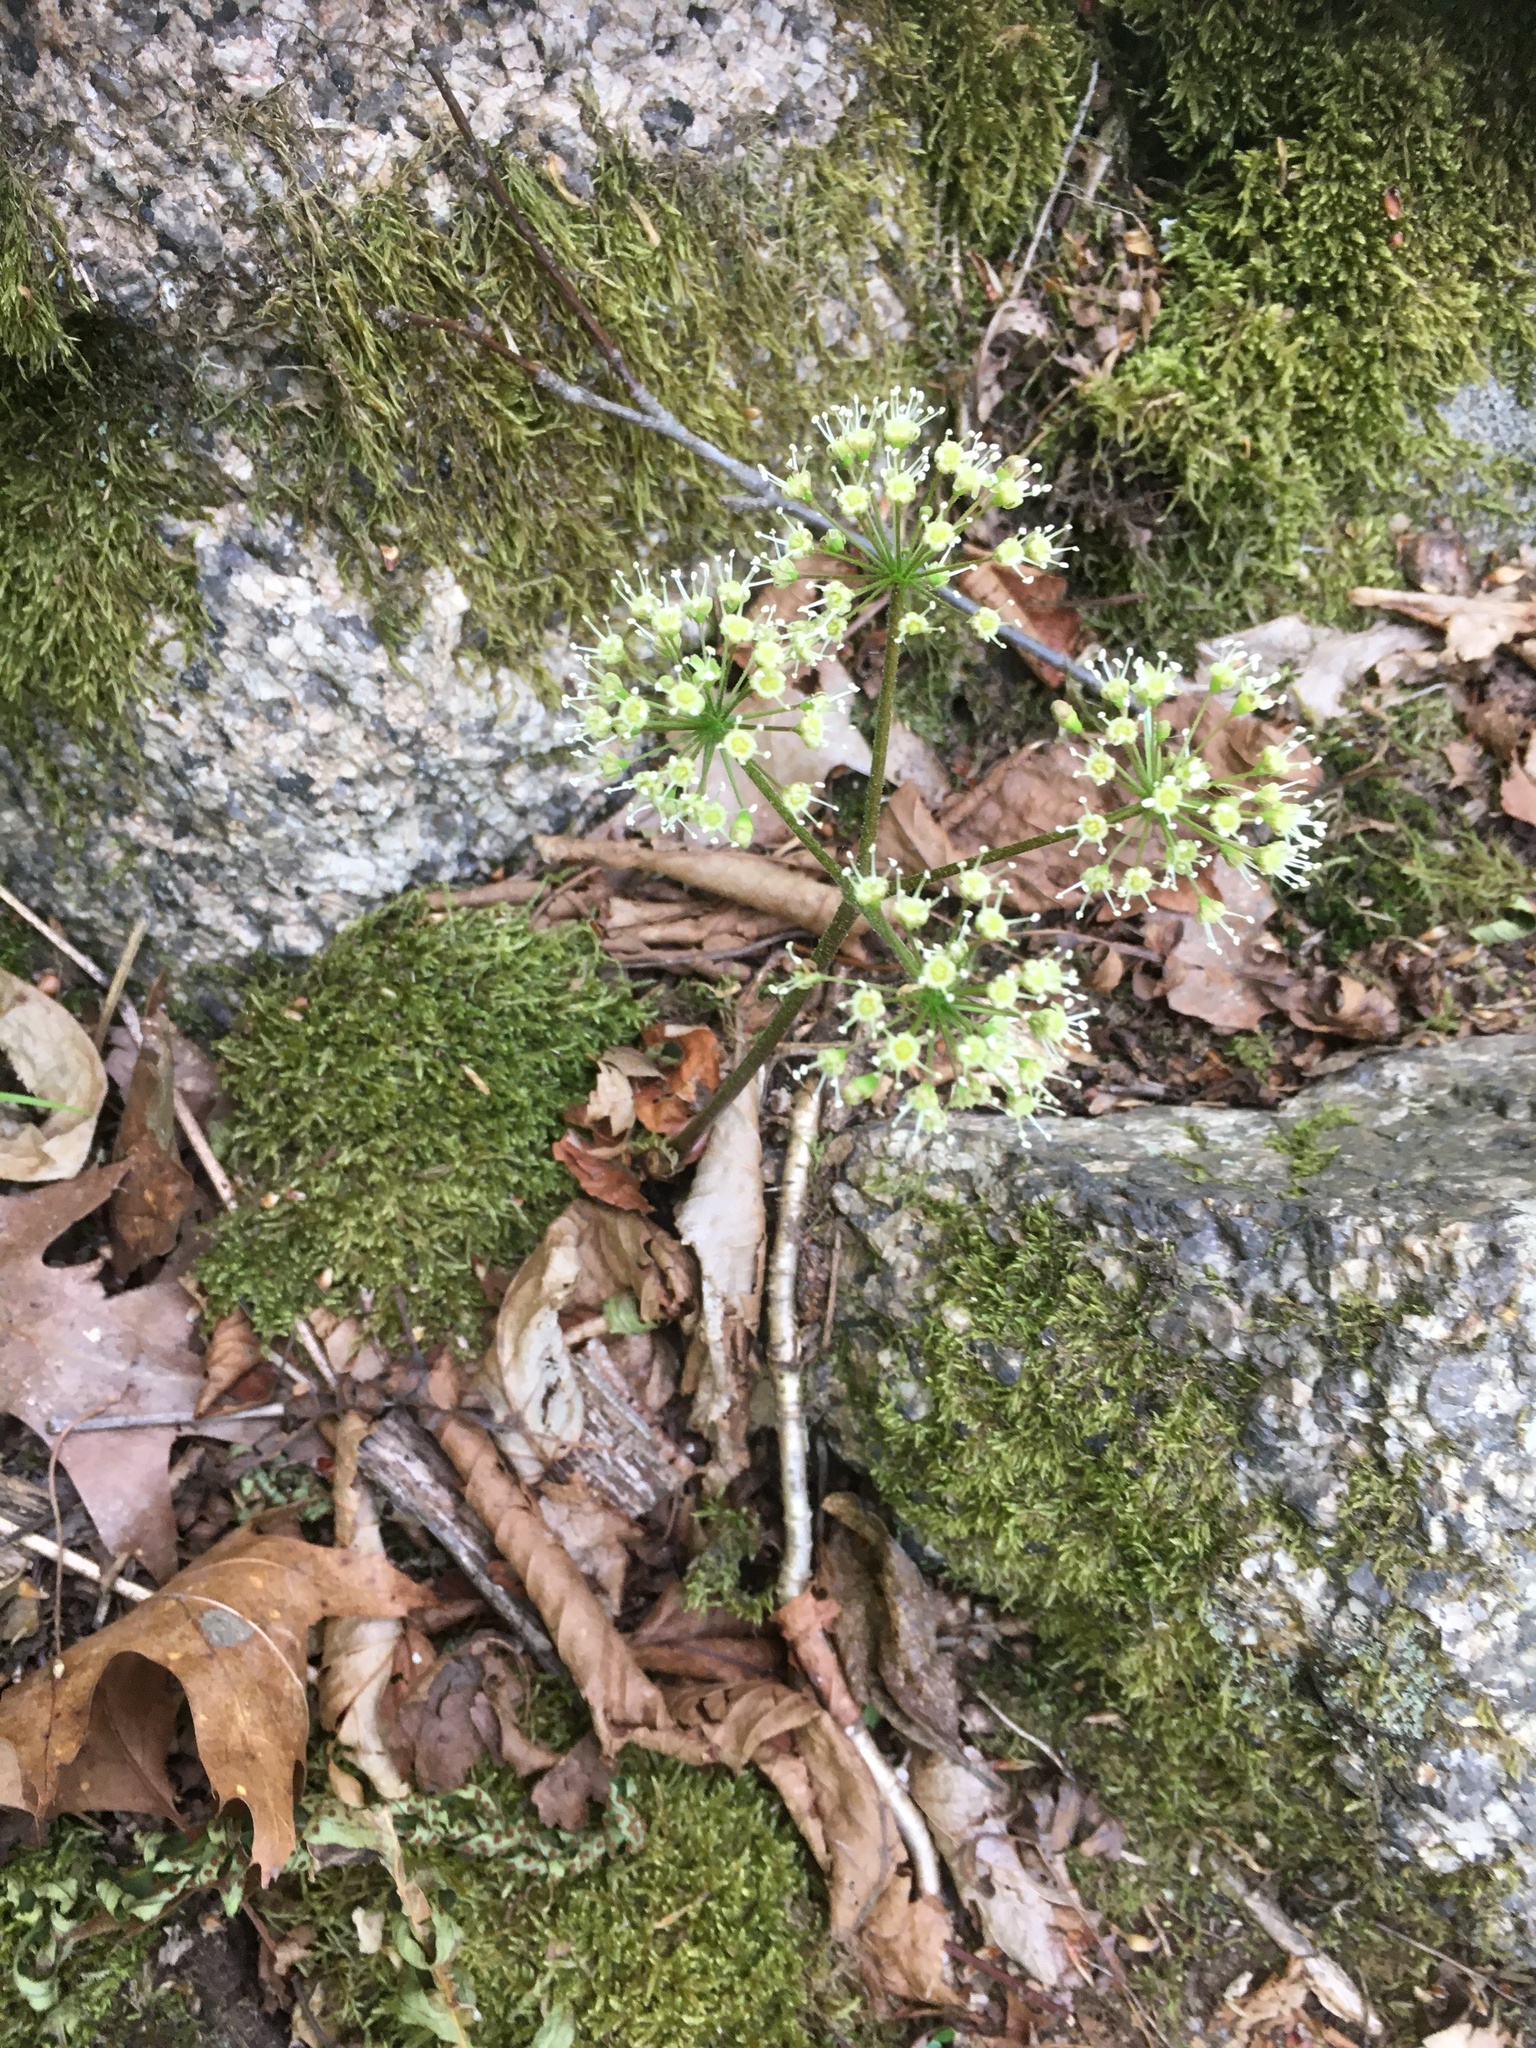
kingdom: Plantae
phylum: Tracheophyta
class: Magnoliopsida
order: Apiales
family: Araliaceae
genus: Aralia
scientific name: Aralia nudicaulis
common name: Wild sarsaparilla
